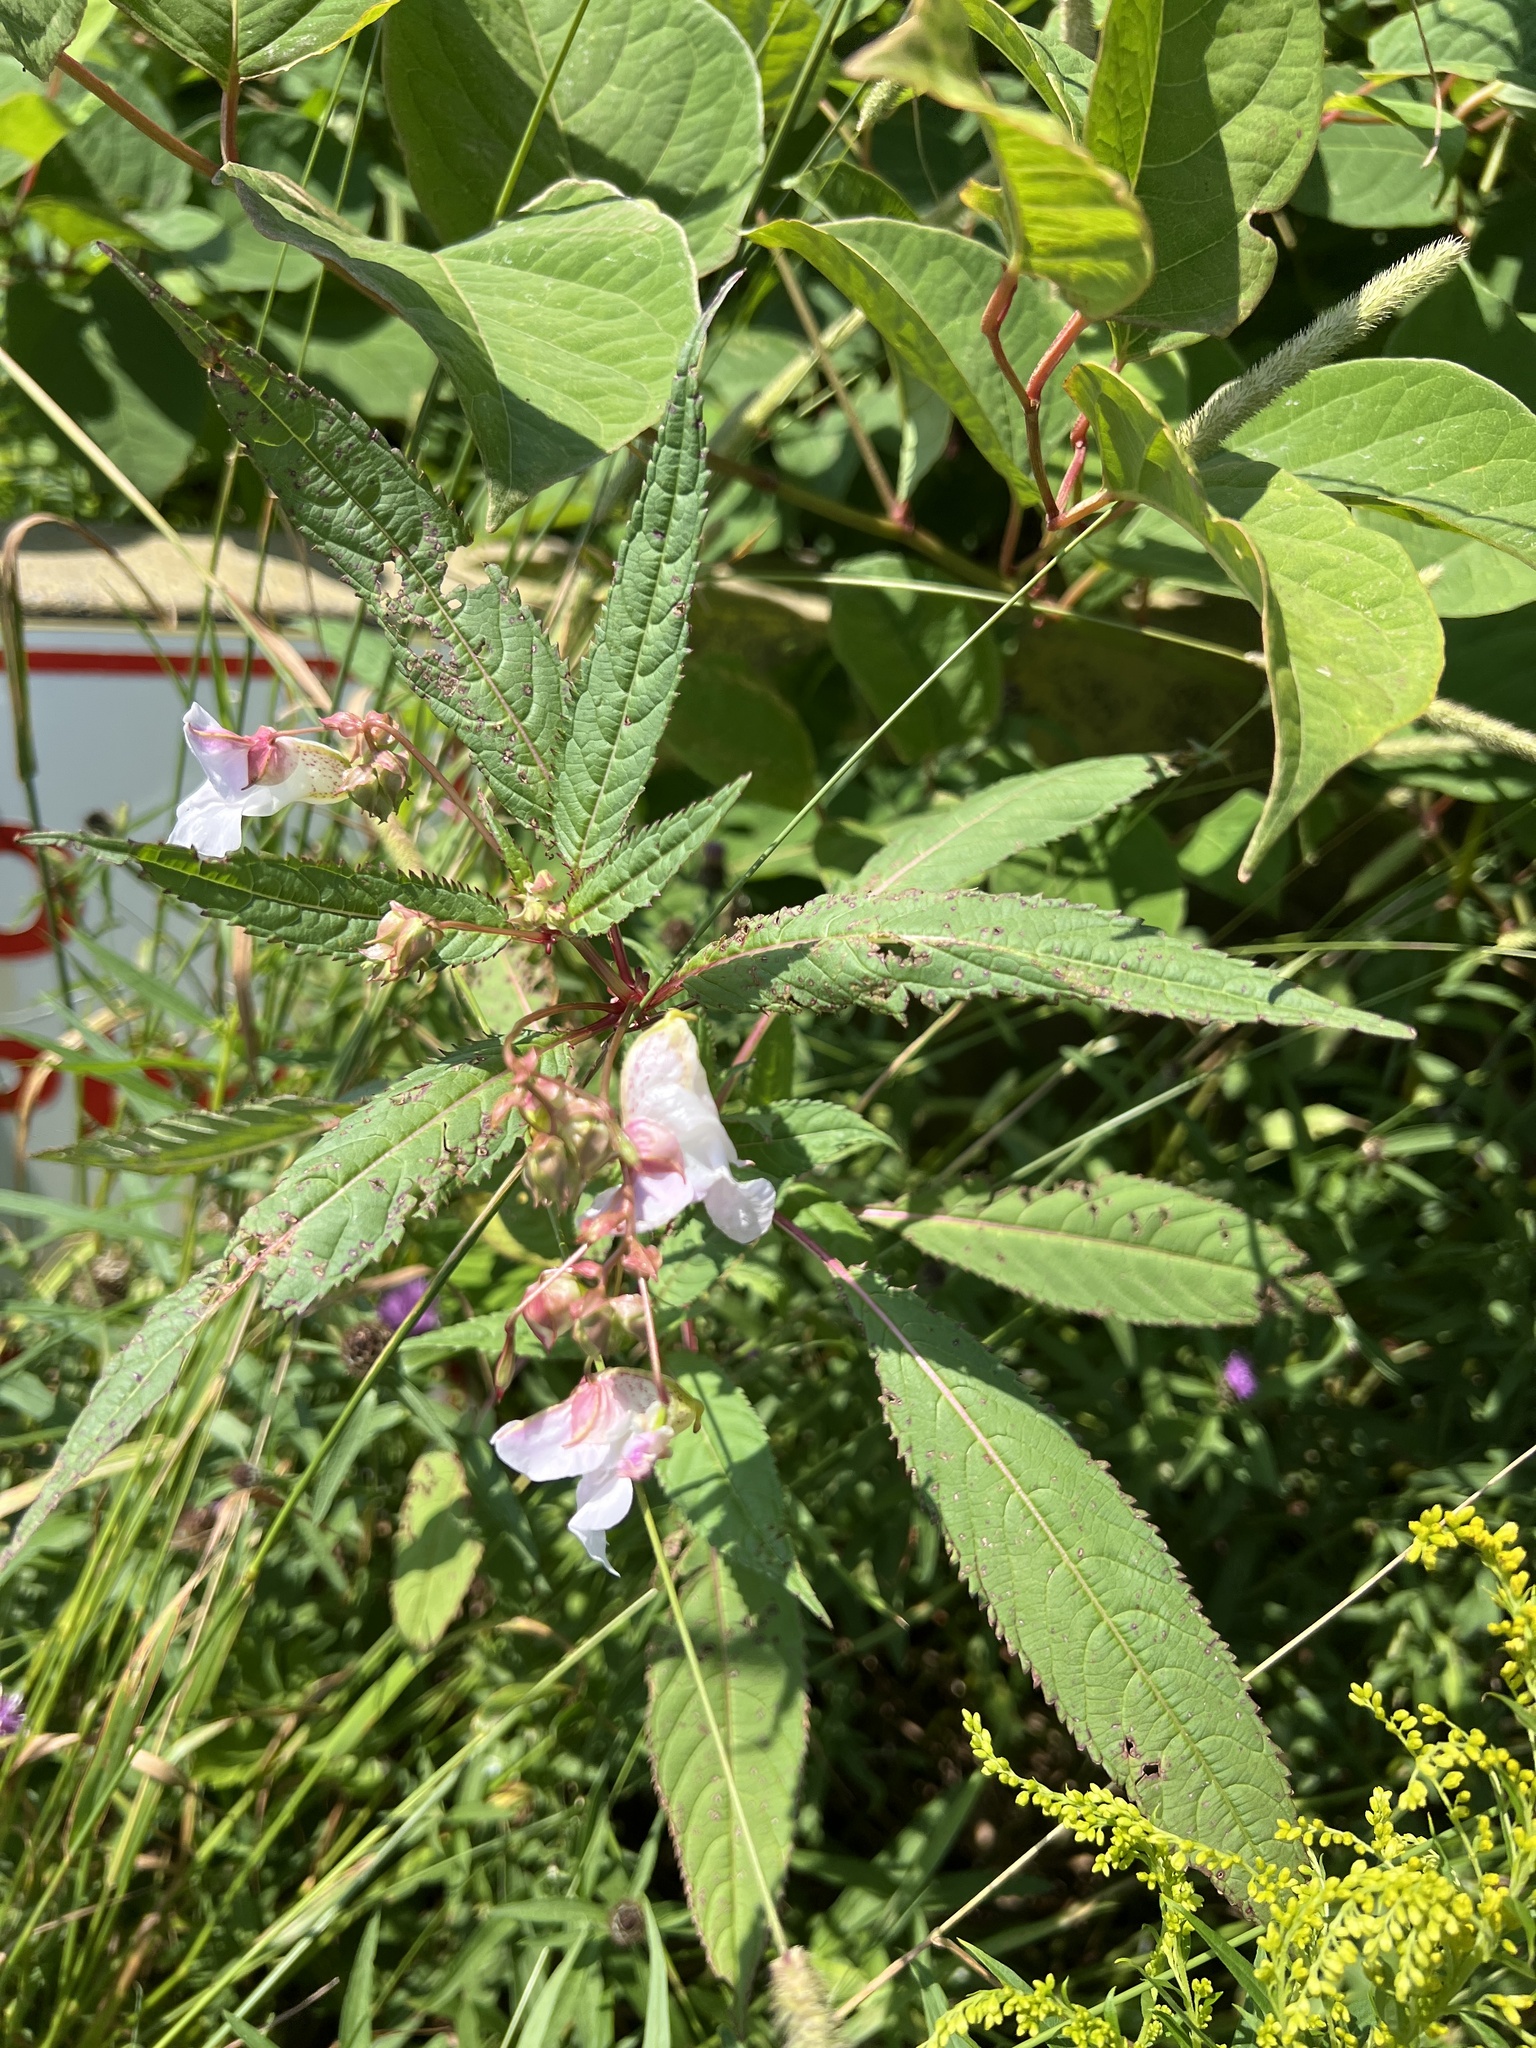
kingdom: Plantae
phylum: Tracheophyta
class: Magnoliopsida
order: Ericales
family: Balsaminaceae
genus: Impatiens
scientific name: Impatiens glandulifera
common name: Himalayan balsam
